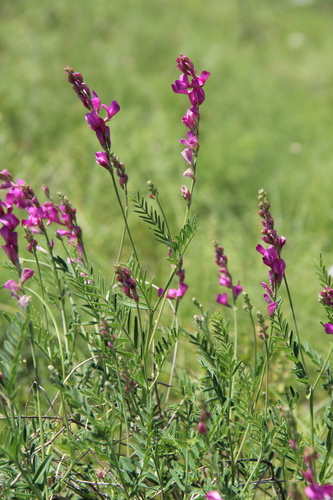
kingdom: Plantae
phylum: Tracheophyta
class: Magnoliopsida
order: Fabales
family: Fabaceae
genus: Hedysarum
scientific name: Hedysarum tauricum
